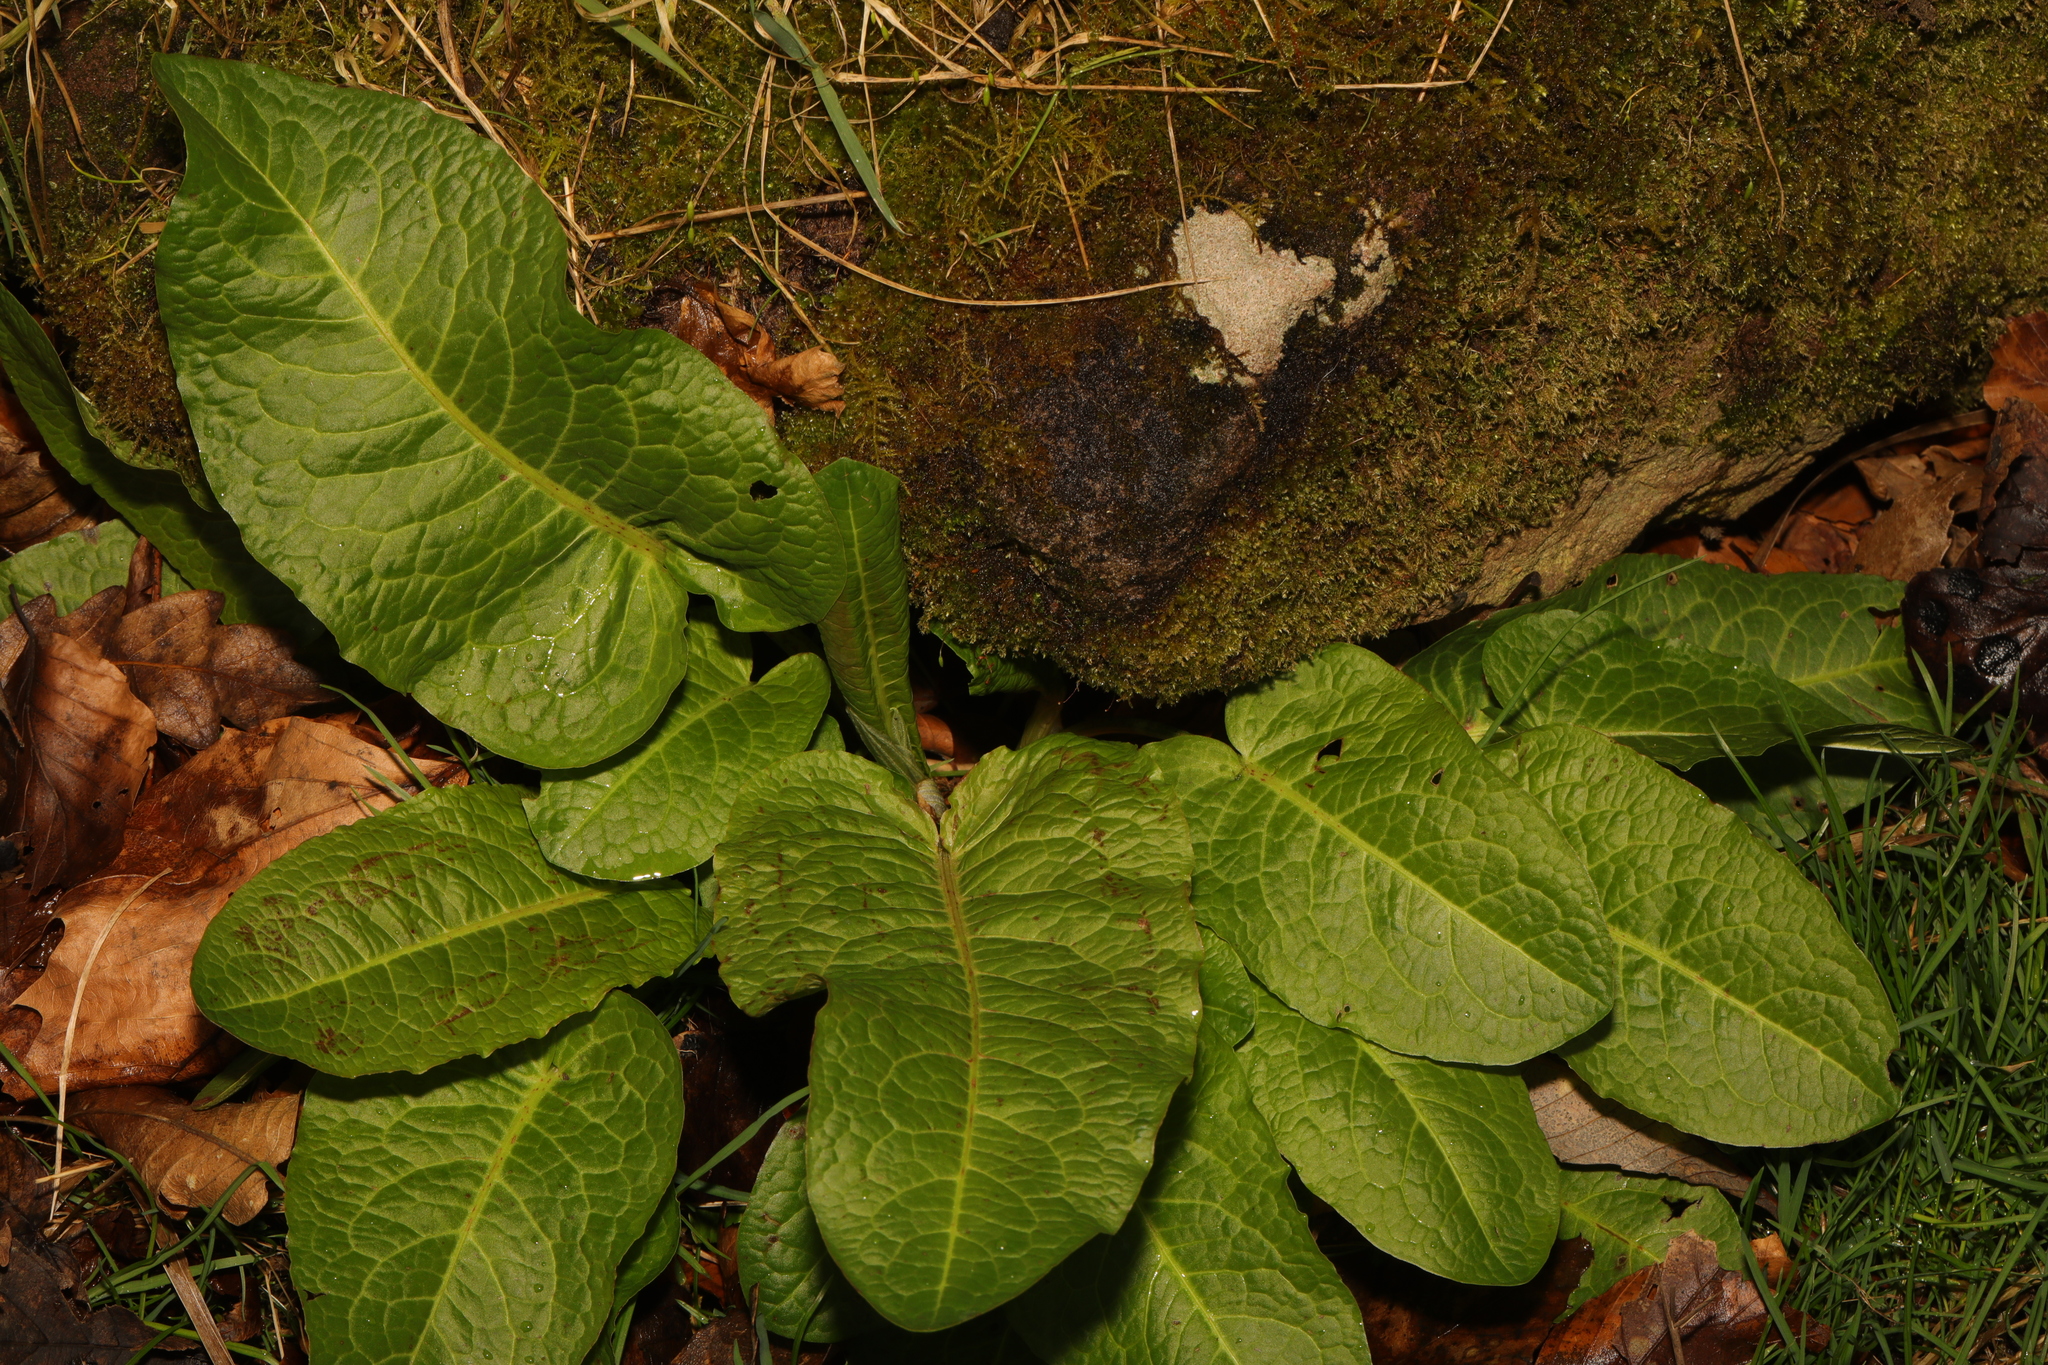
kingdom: Plantae
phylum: Tracheophyta
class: Magnoliopsida
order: Caryophyllales
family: Polygonaceae
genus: Rumex
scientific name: Rumex obtusifolius
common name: Bitter dock
